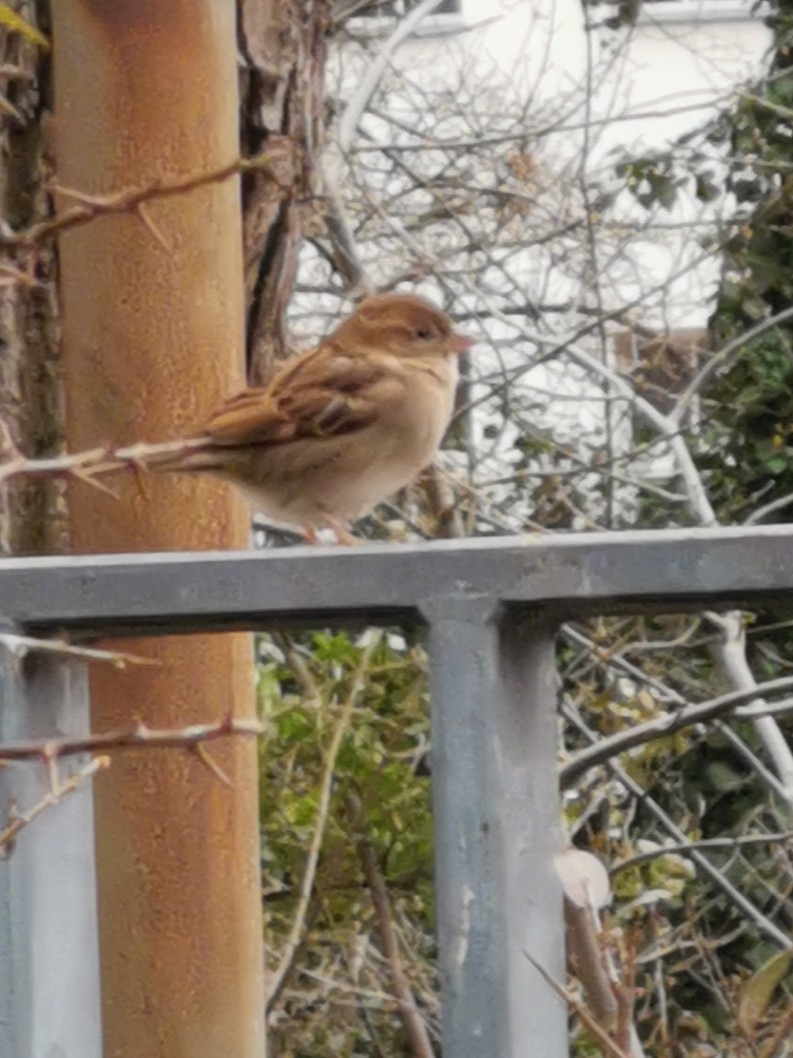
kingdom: Animalia
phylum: Chordata
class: Aves
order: Passeriformes
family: Passeridae
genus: Passer
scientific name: Passer domesticus
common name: House sparrow
